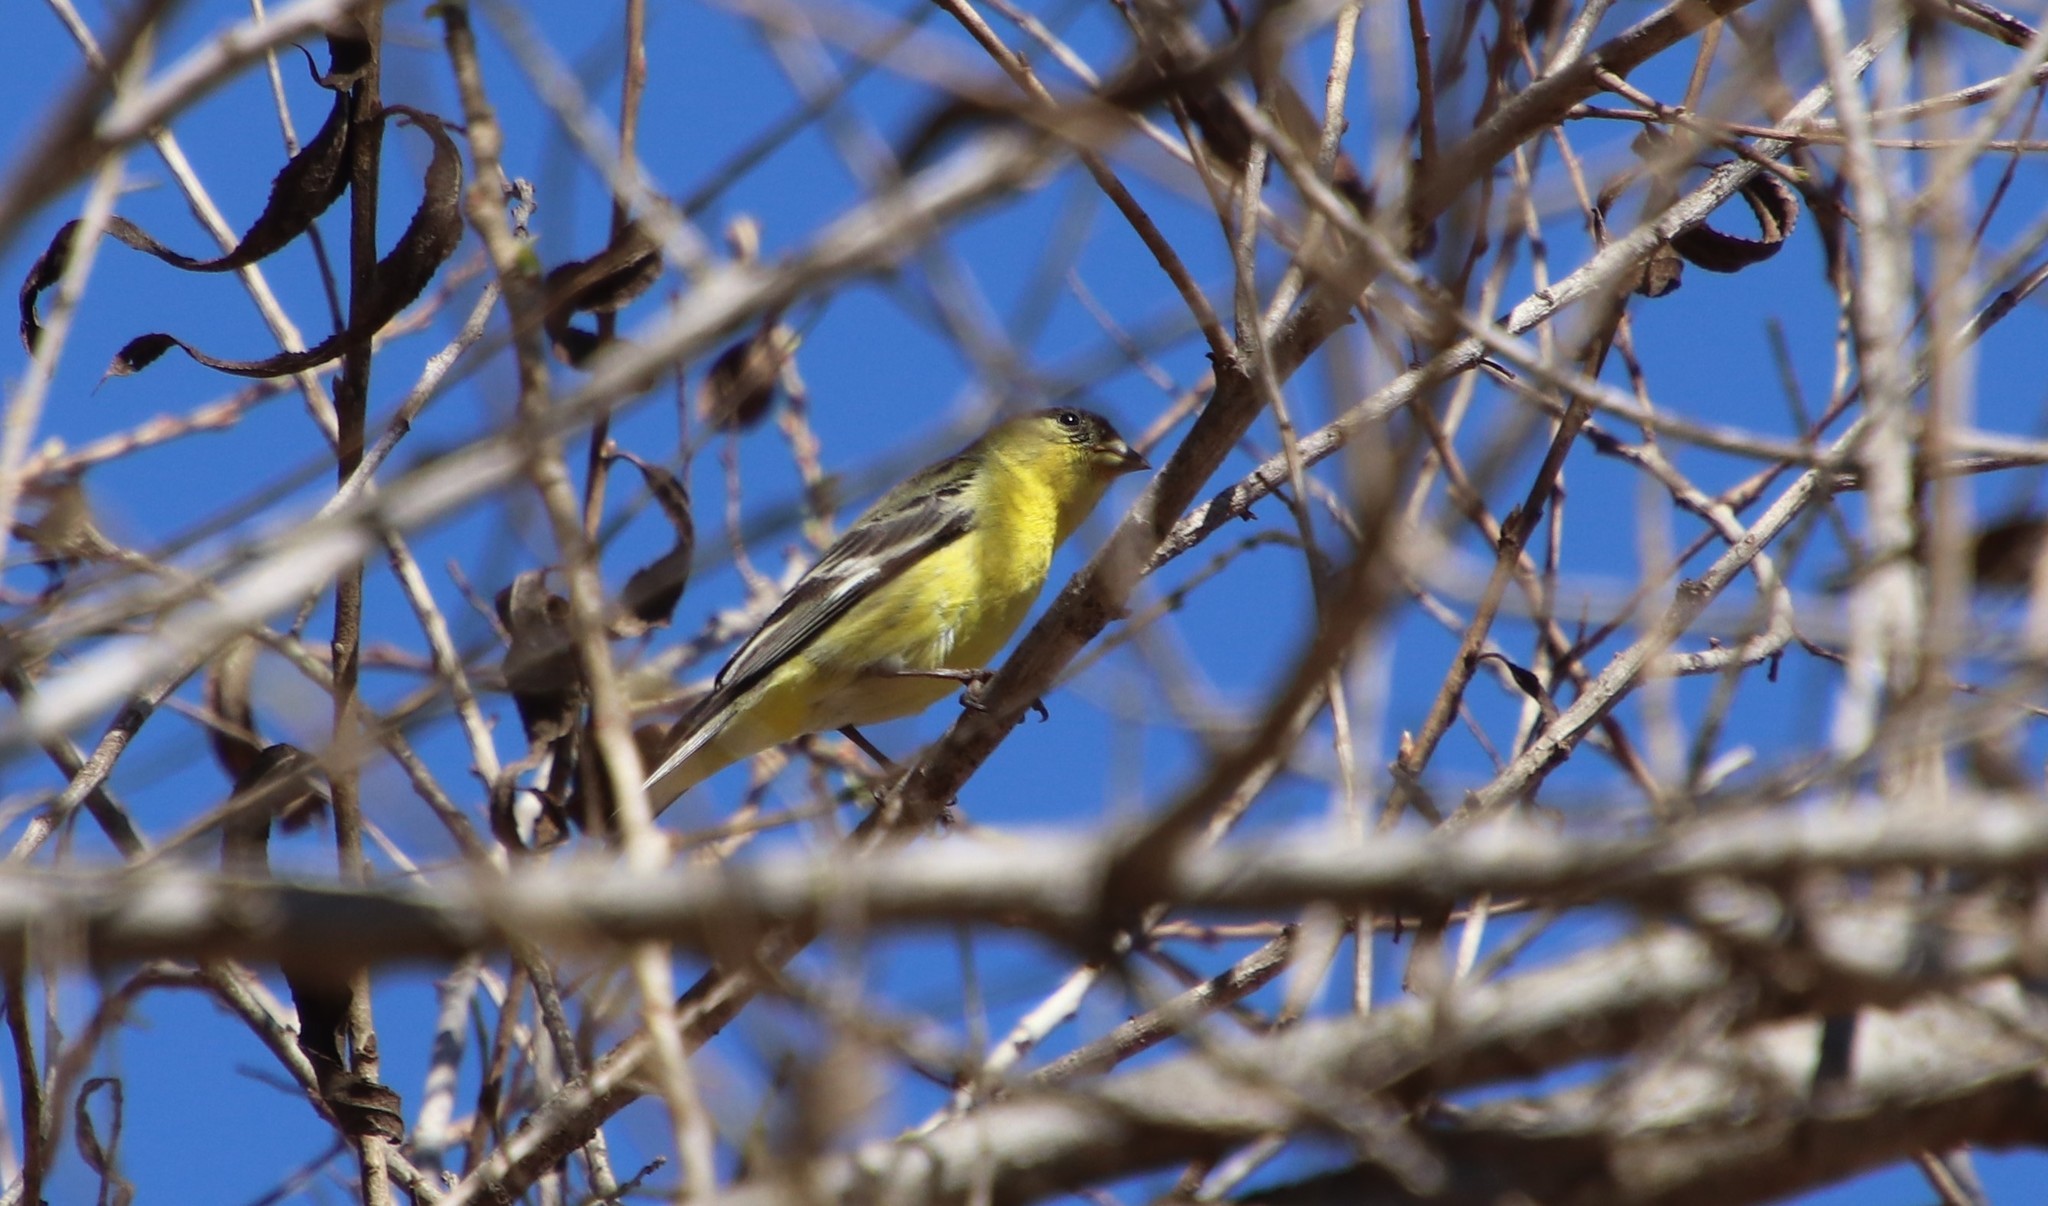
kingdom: Animalia
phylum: Chordata
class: Aves
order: Passeriformes
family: Fringillidae
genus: Spinus
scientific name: Spinus psaltria
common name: Lesser goldfinch
